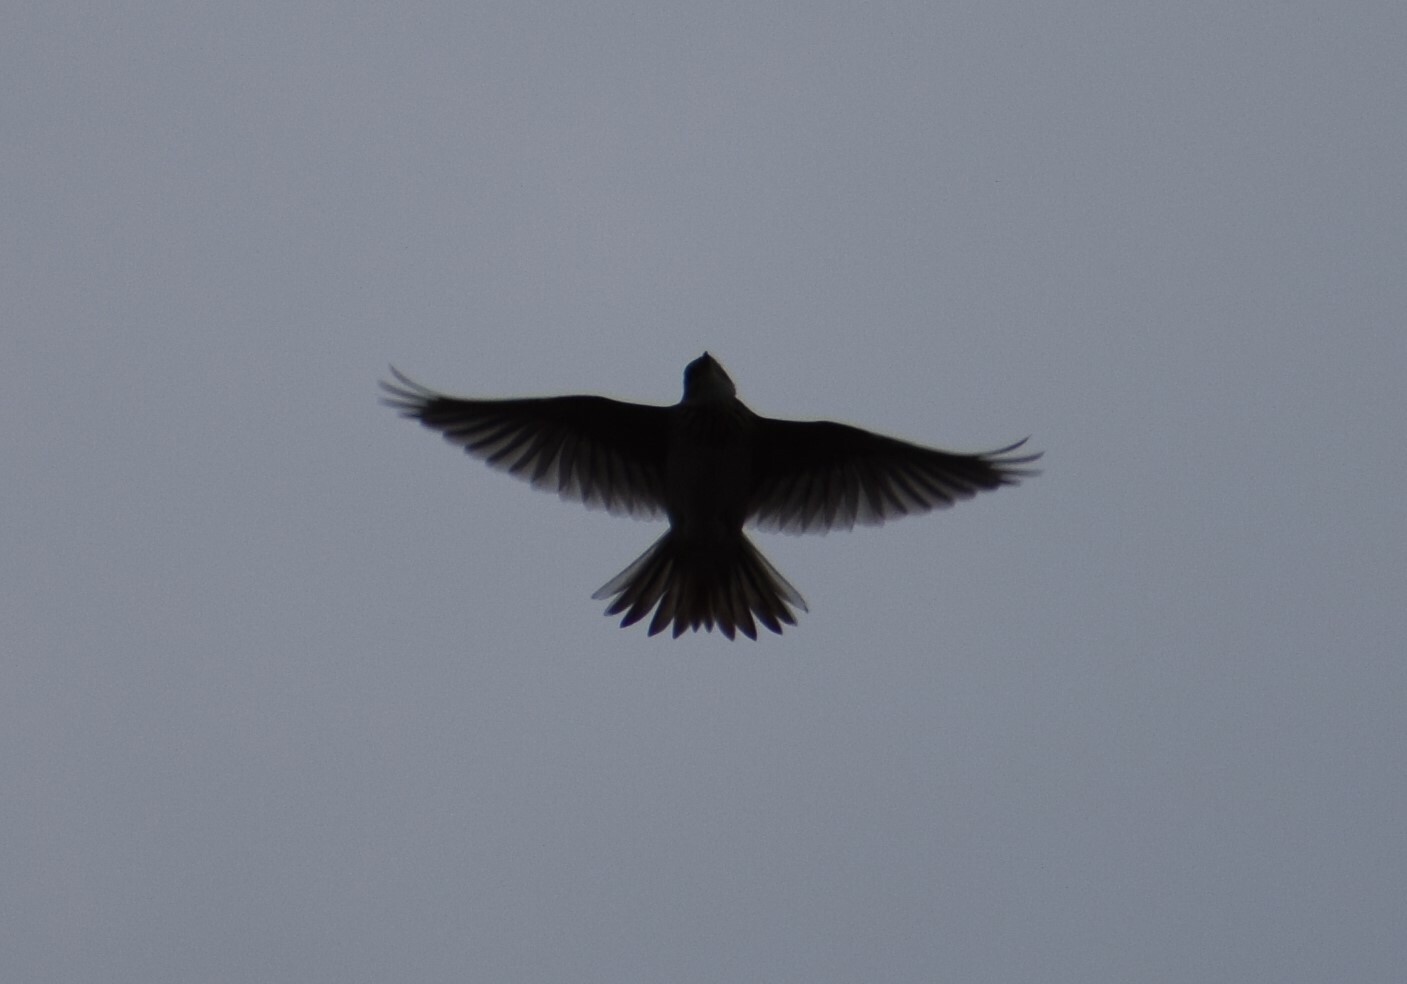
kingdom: Animalia
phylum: Chordata
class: Aves
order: Passeriformes
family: Alaudidae
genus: Alauda
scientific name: Alauda arvensis
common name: Eurasian skylark
